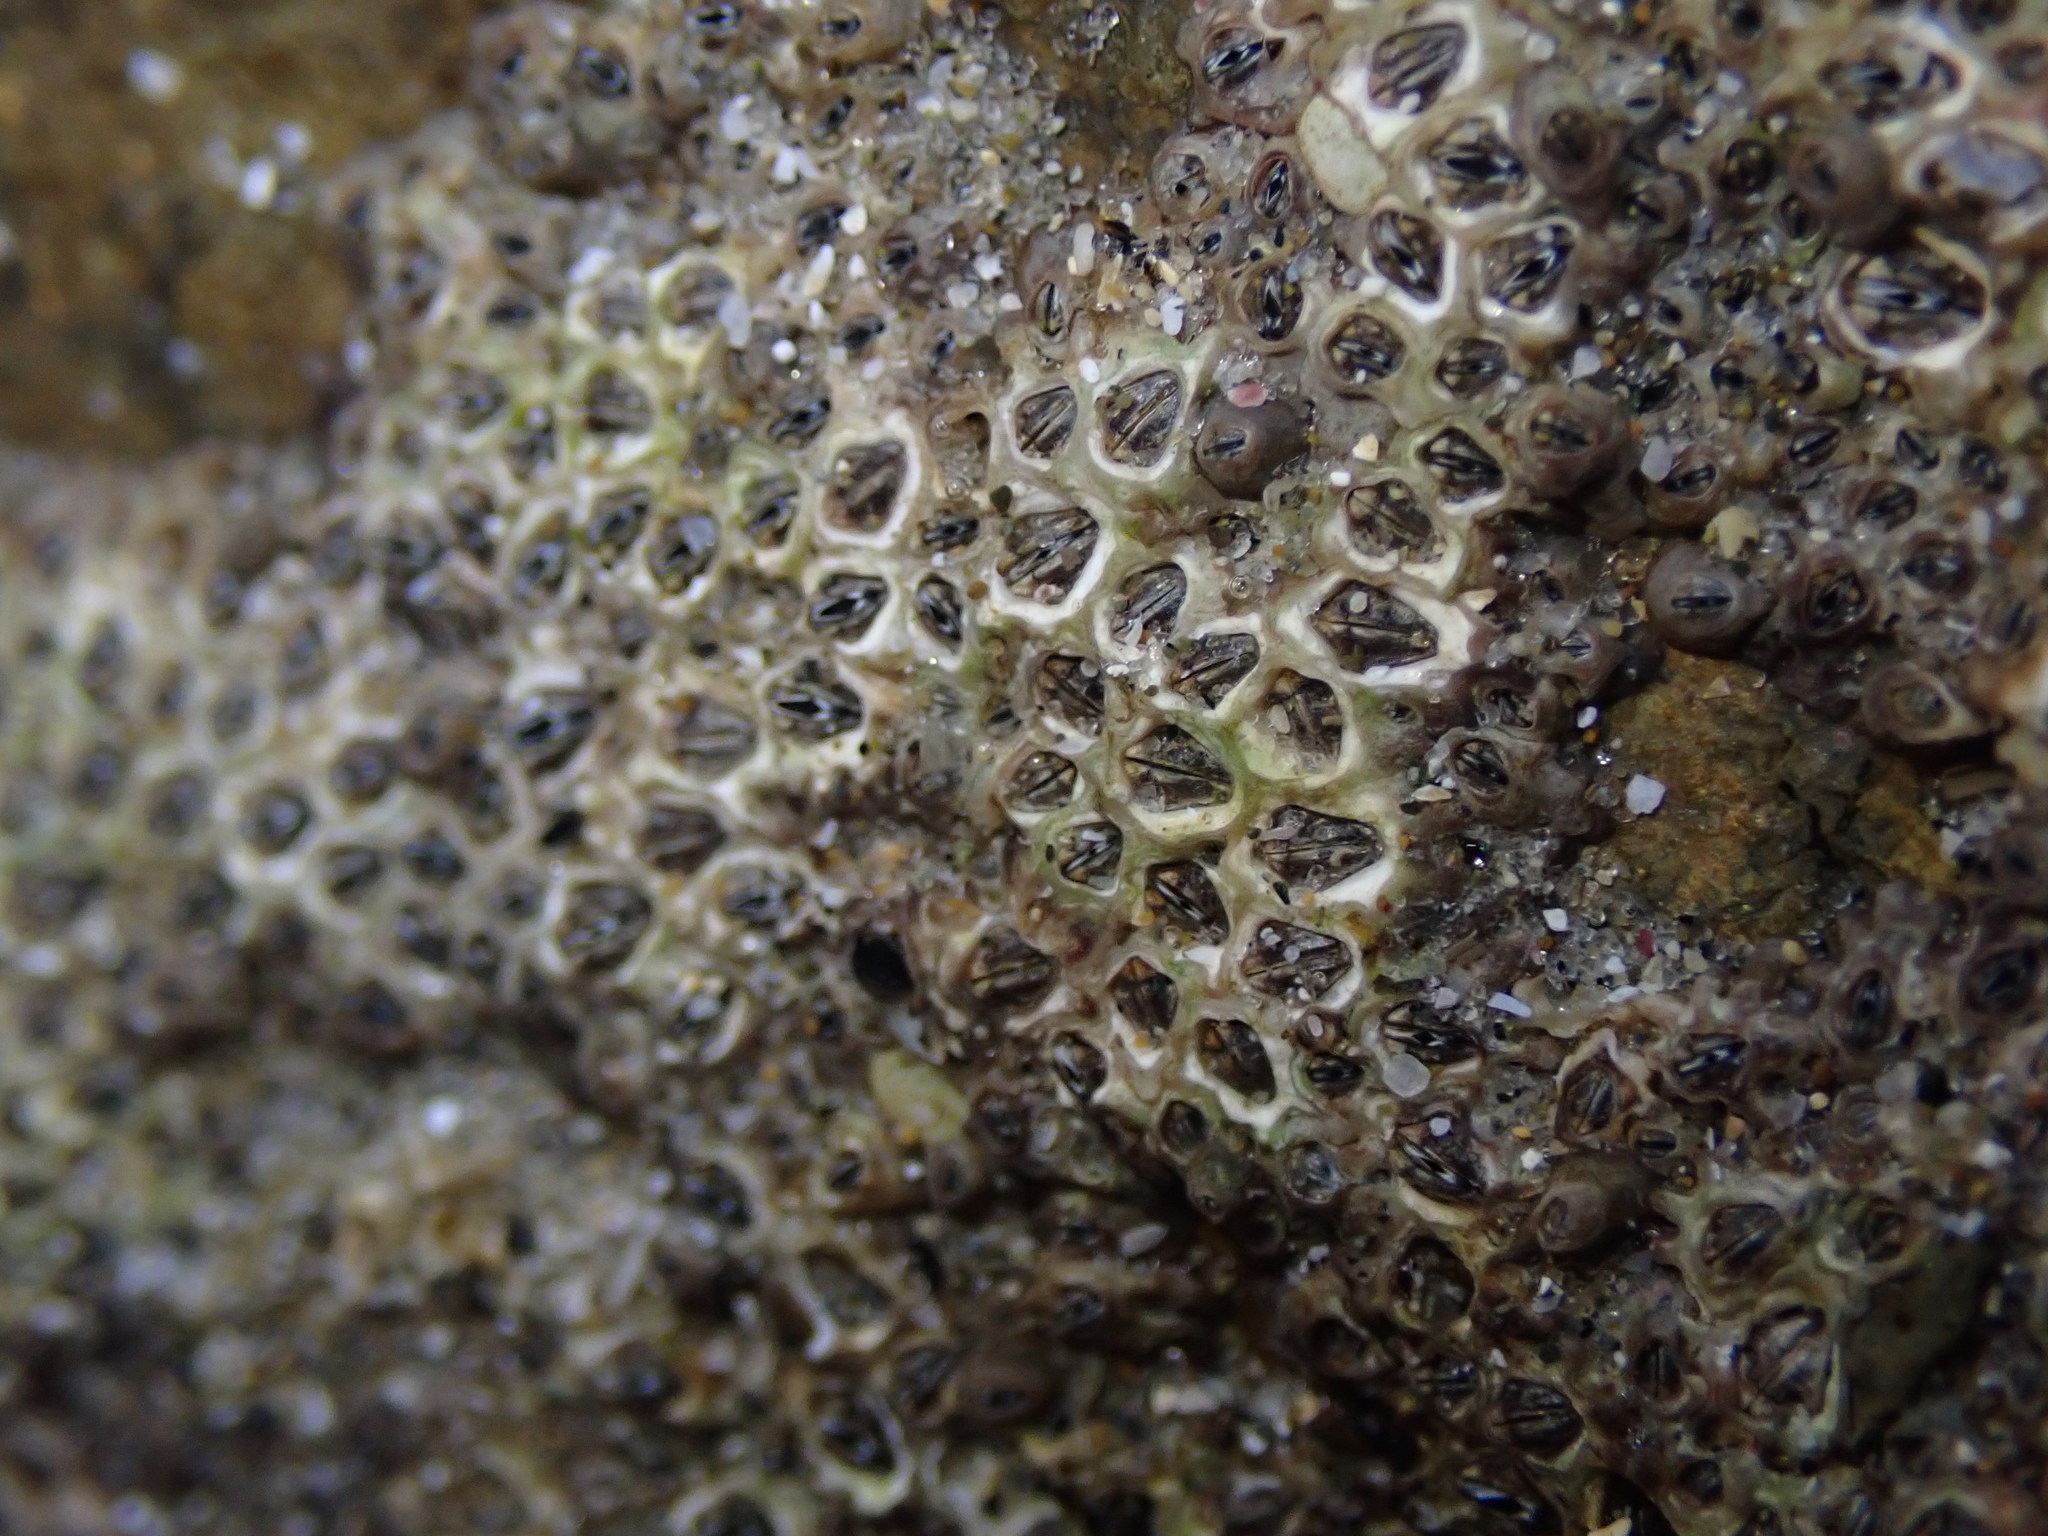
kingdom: Animalia
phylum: Arthropoda
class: Maxillopoda
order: Sessilia
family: Chthamalidae
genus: Chamaesipho
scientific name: Chamaesipho columna
